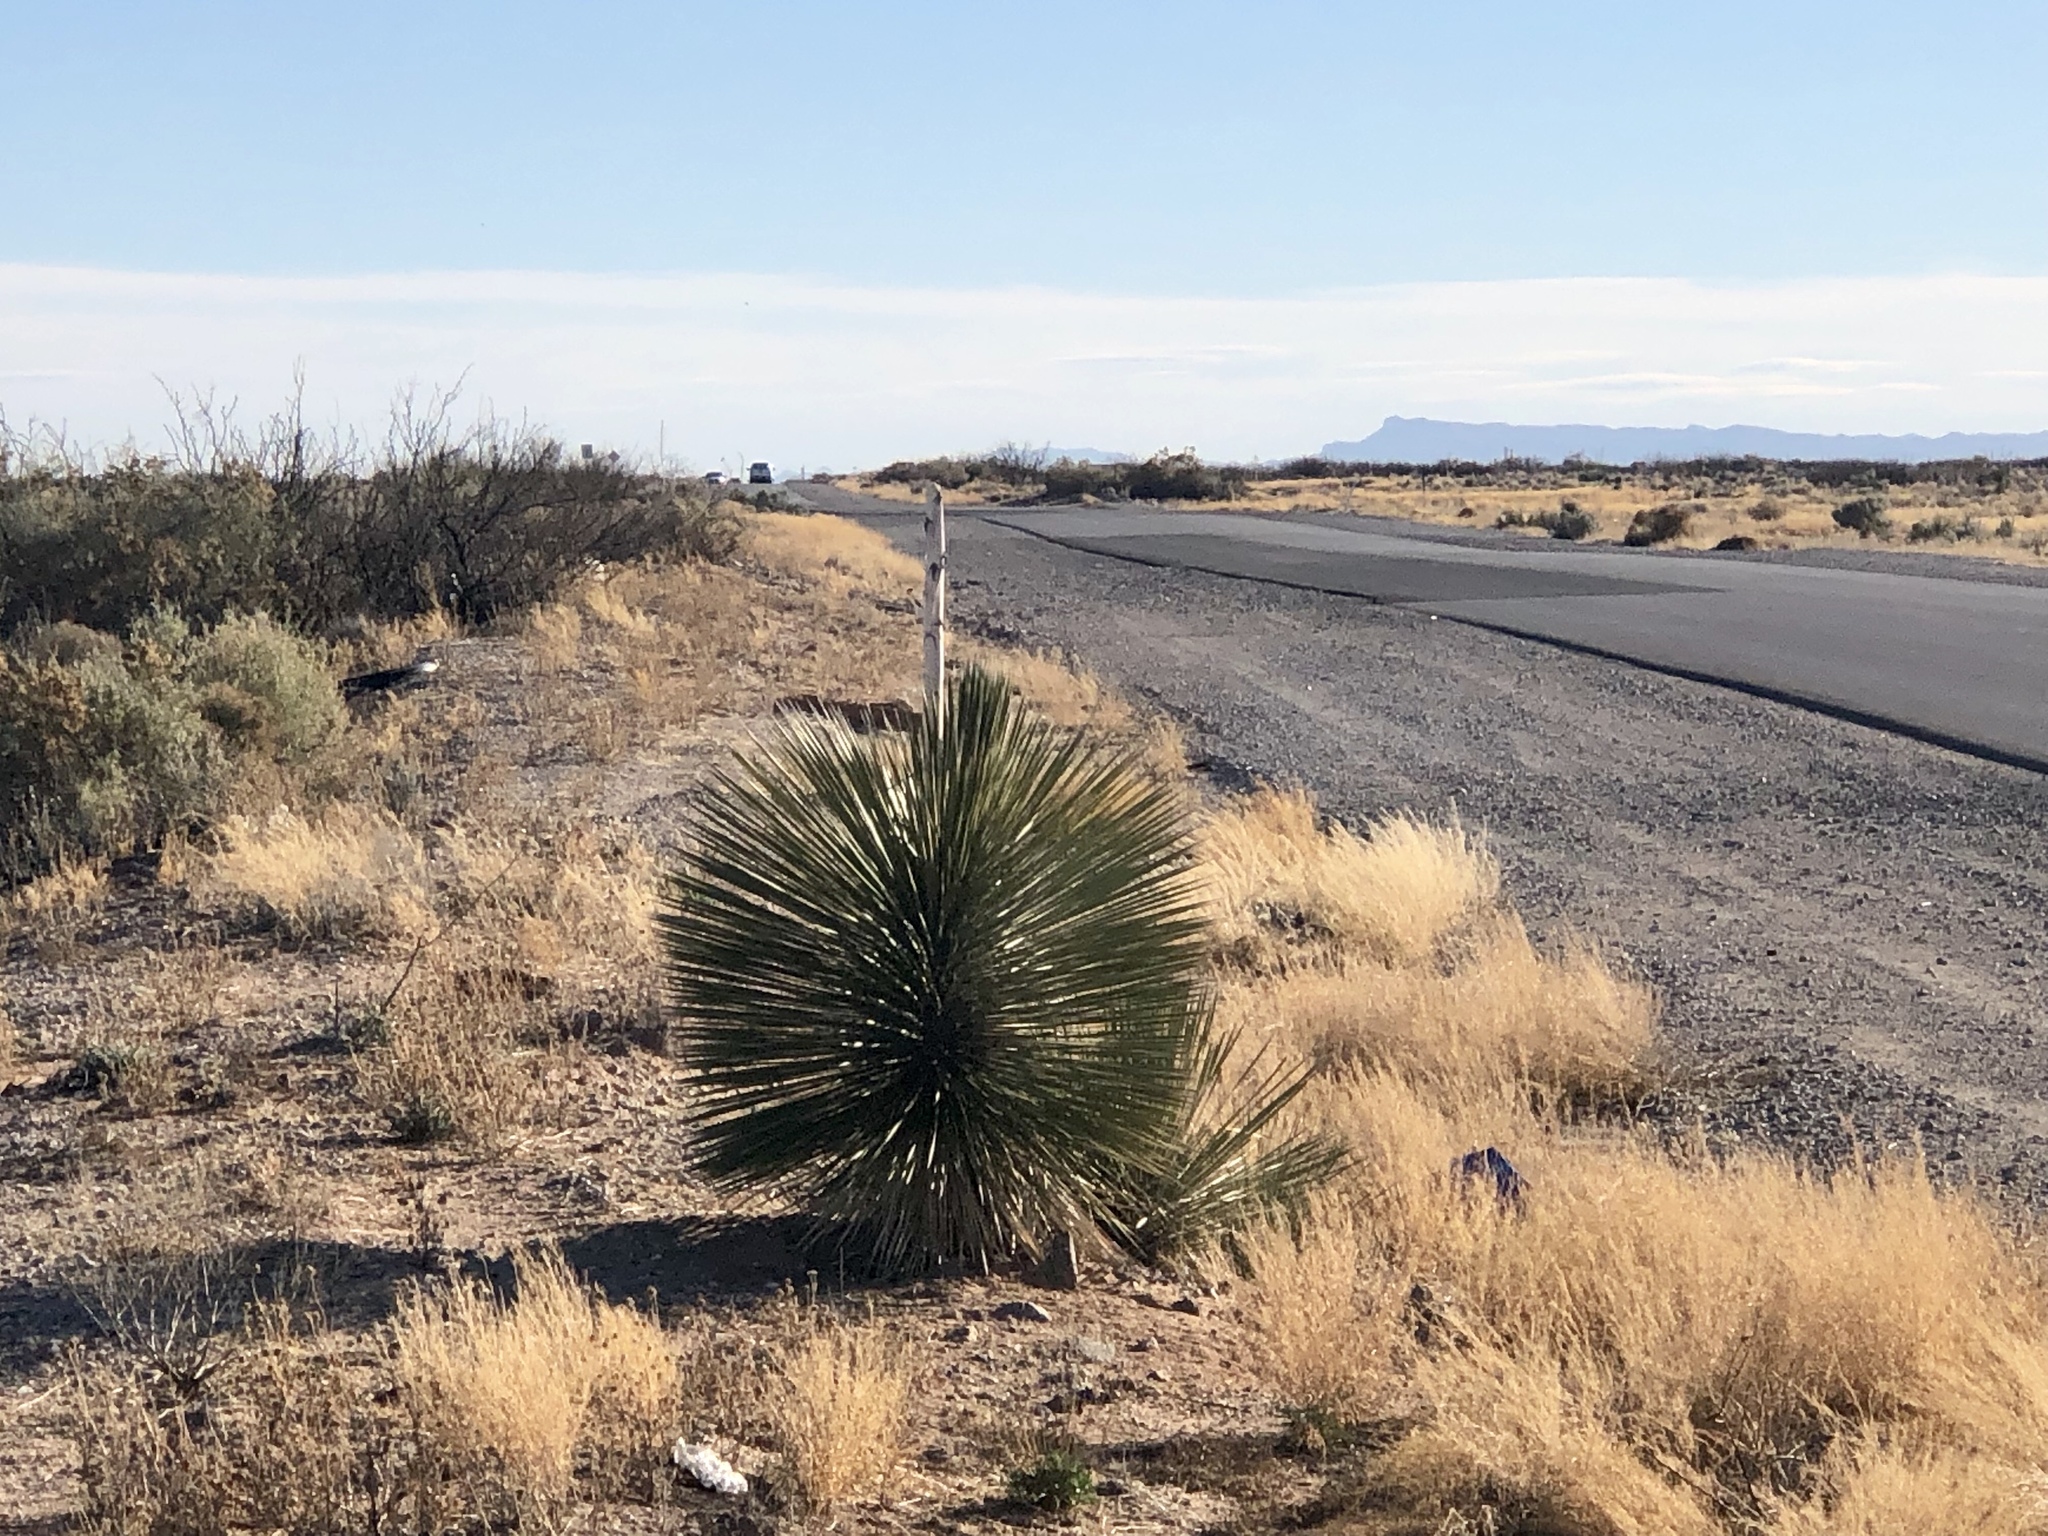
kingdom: Plantae
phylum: Tracheophyta
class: Liliopsida
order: Asparagales
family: Asparagaceae
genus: Yucca
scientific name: Yucca elata
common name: Palmella
